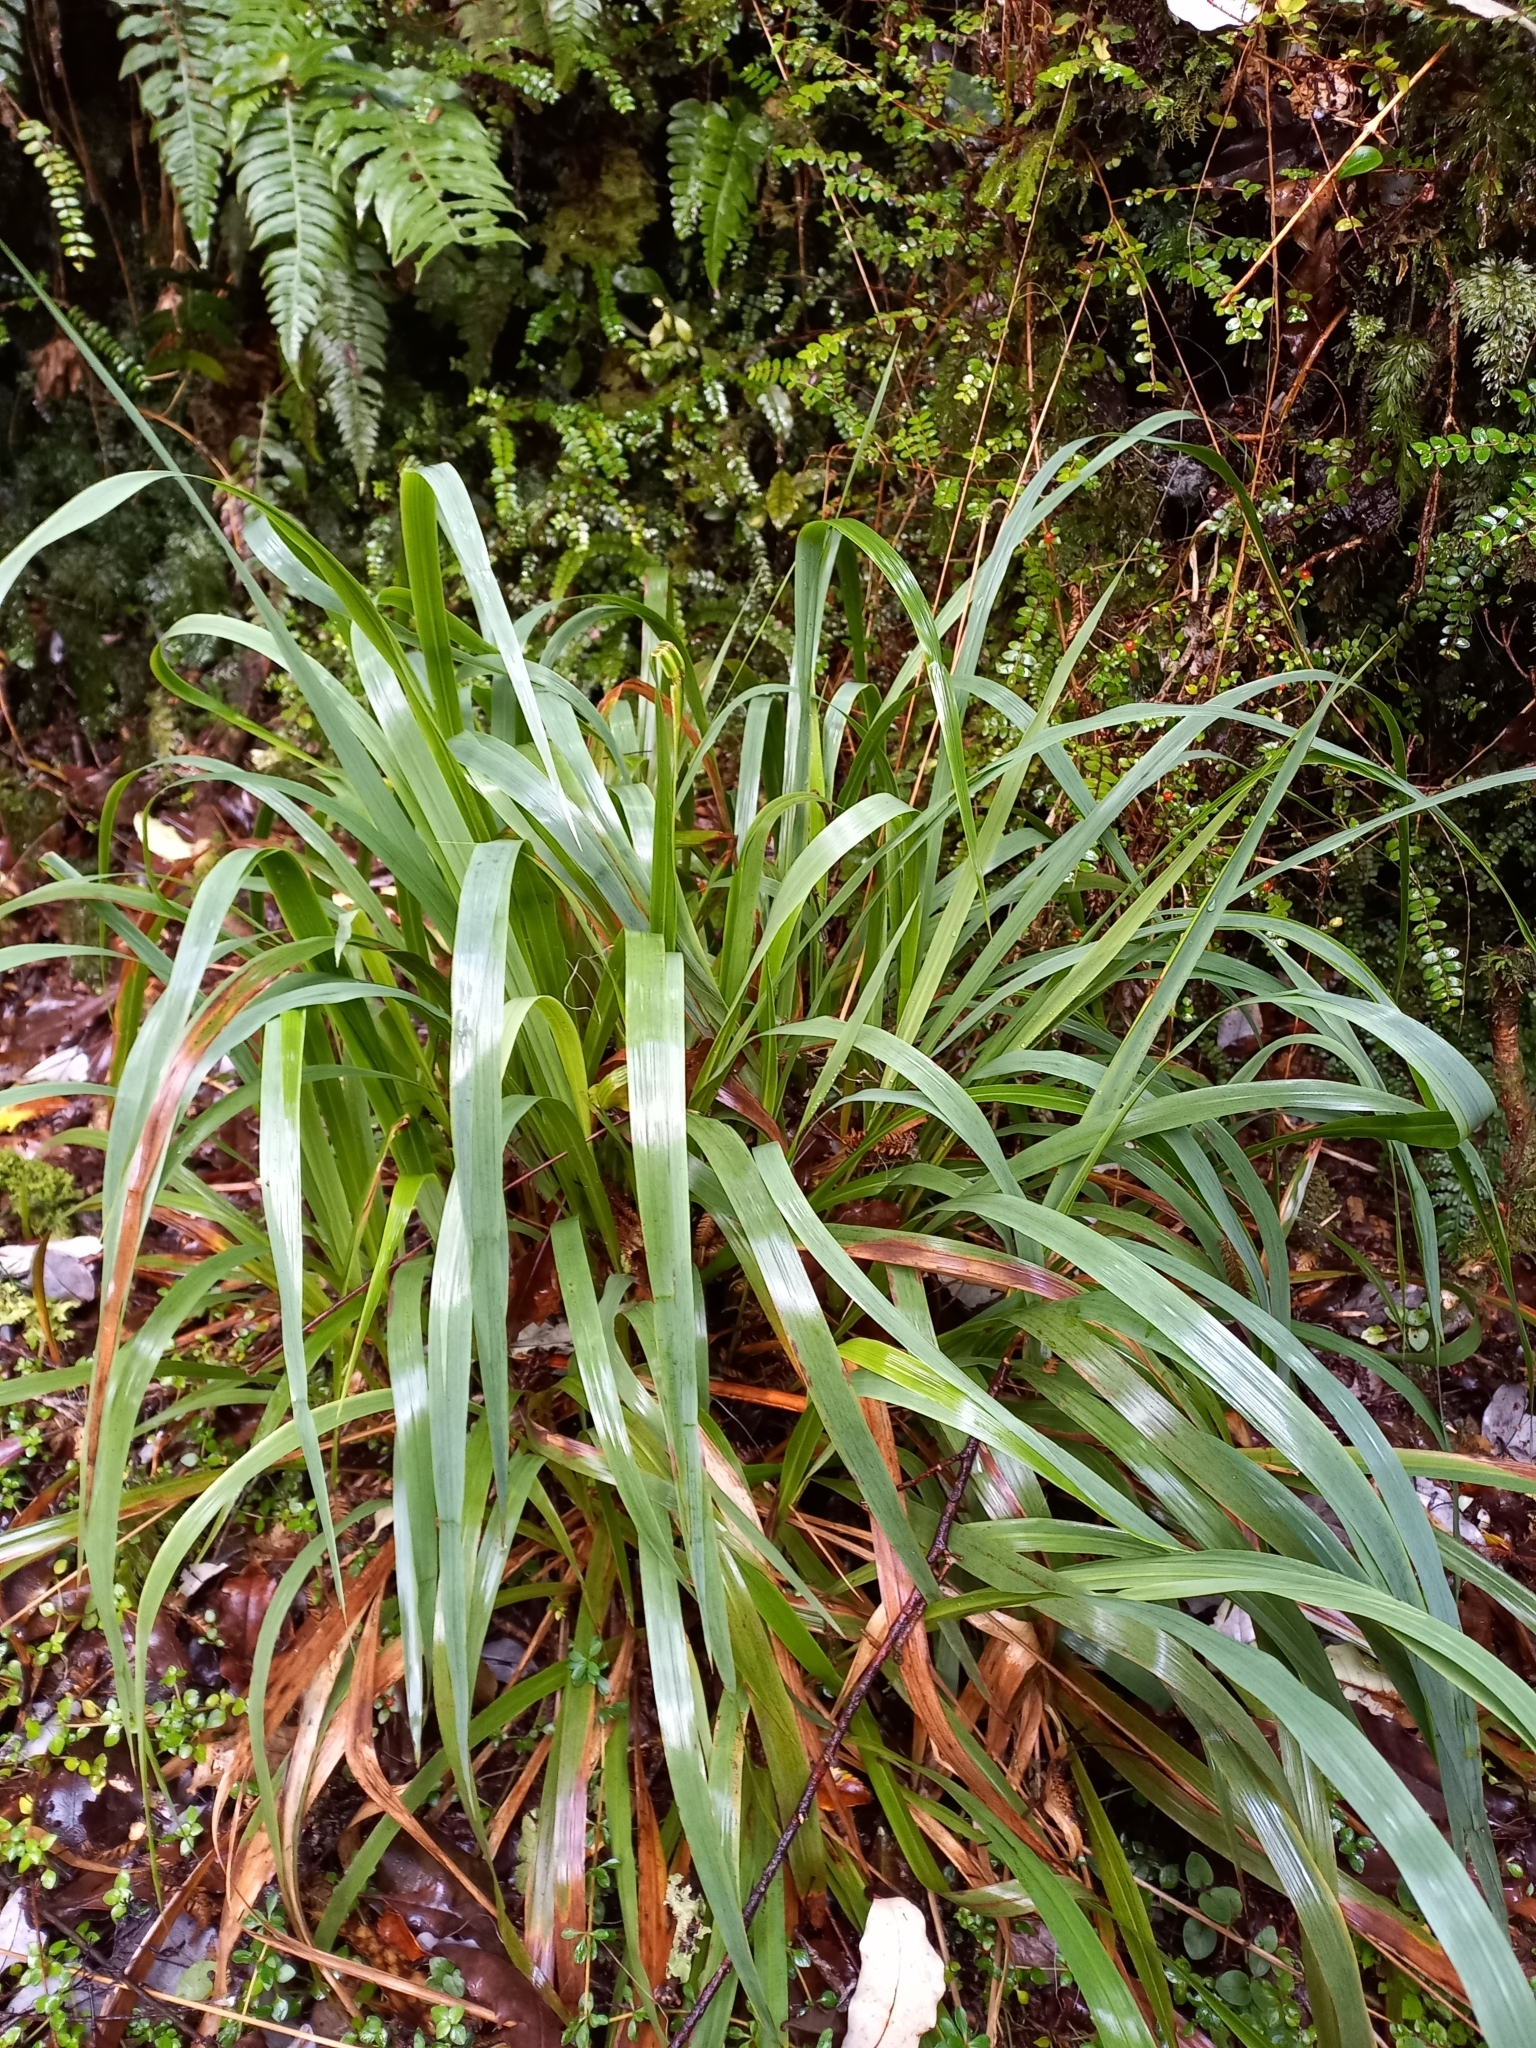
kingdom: Plantae
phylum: Tracheophyta
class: Liliopsida
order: Poales
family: Poaceae
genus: Ehrharta
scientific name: Ehrharta diplax
